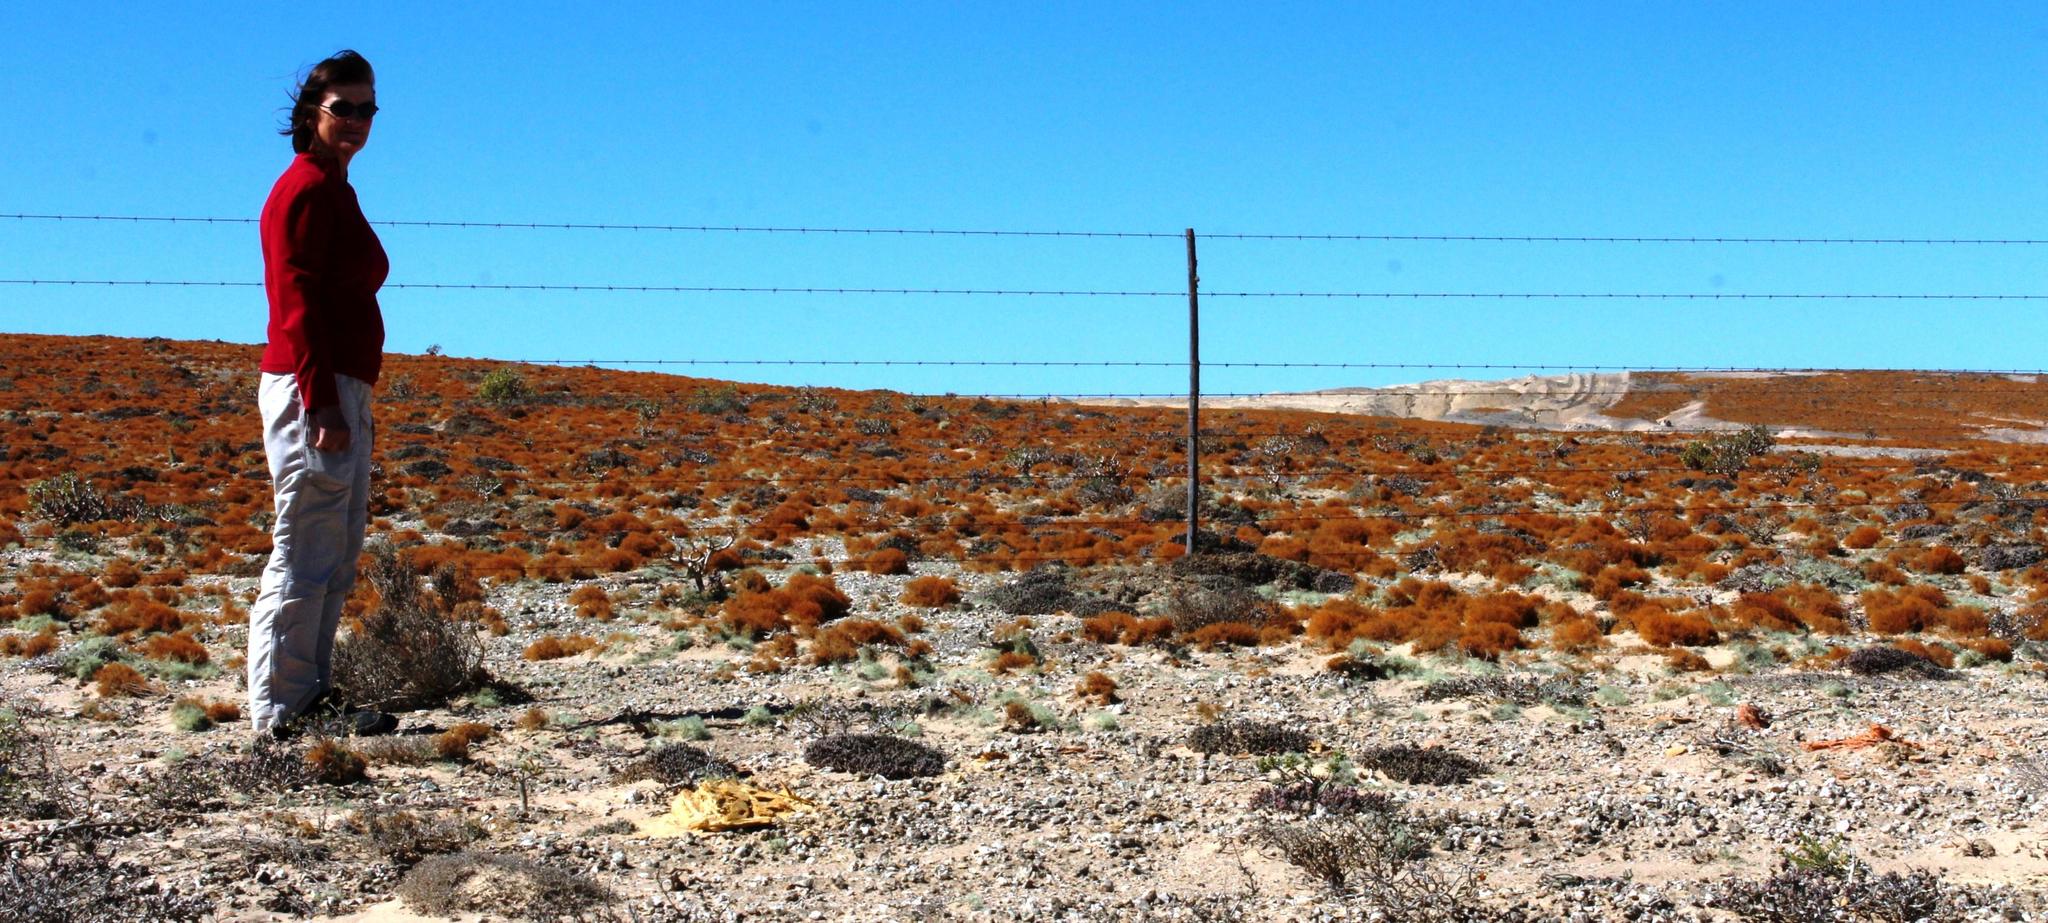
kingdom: Fungi
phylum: Ascomycota
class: Lecanoromycetes
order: Teloschistales
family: Teloschistaceae
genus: Teloschistes
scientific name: Teloschistes capensis
